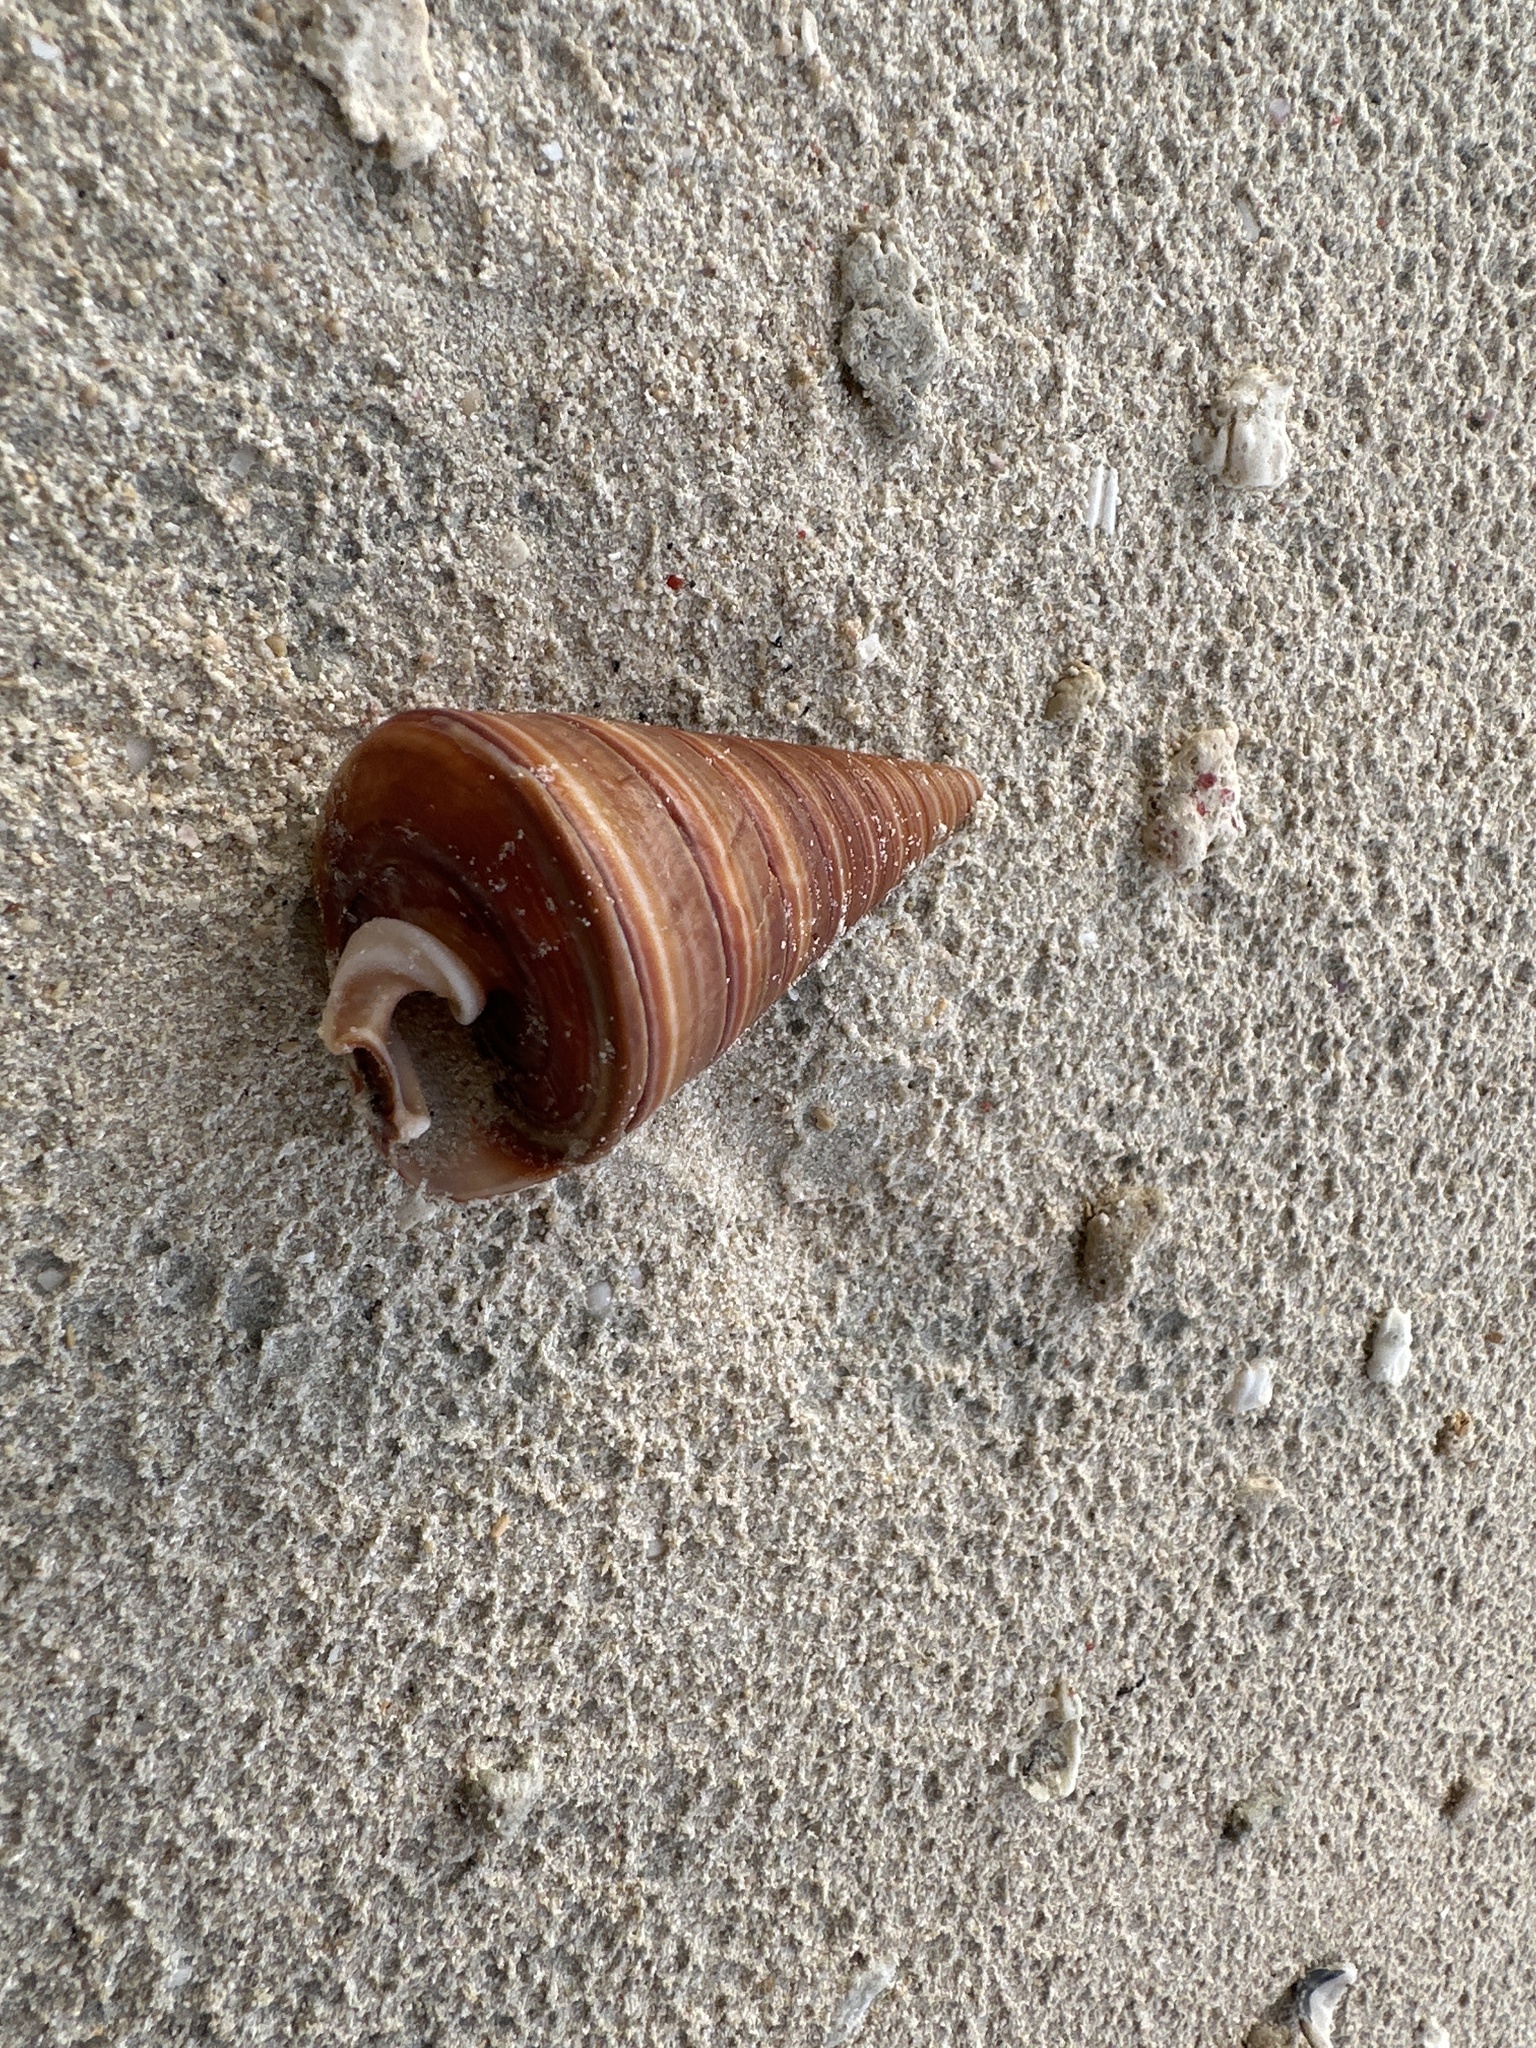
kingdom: Animalia
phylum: Mollusca
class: Gastropoda
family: Potamididae
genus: Telescopium
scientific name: Telescopium telescopium
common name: Telescope creeper
